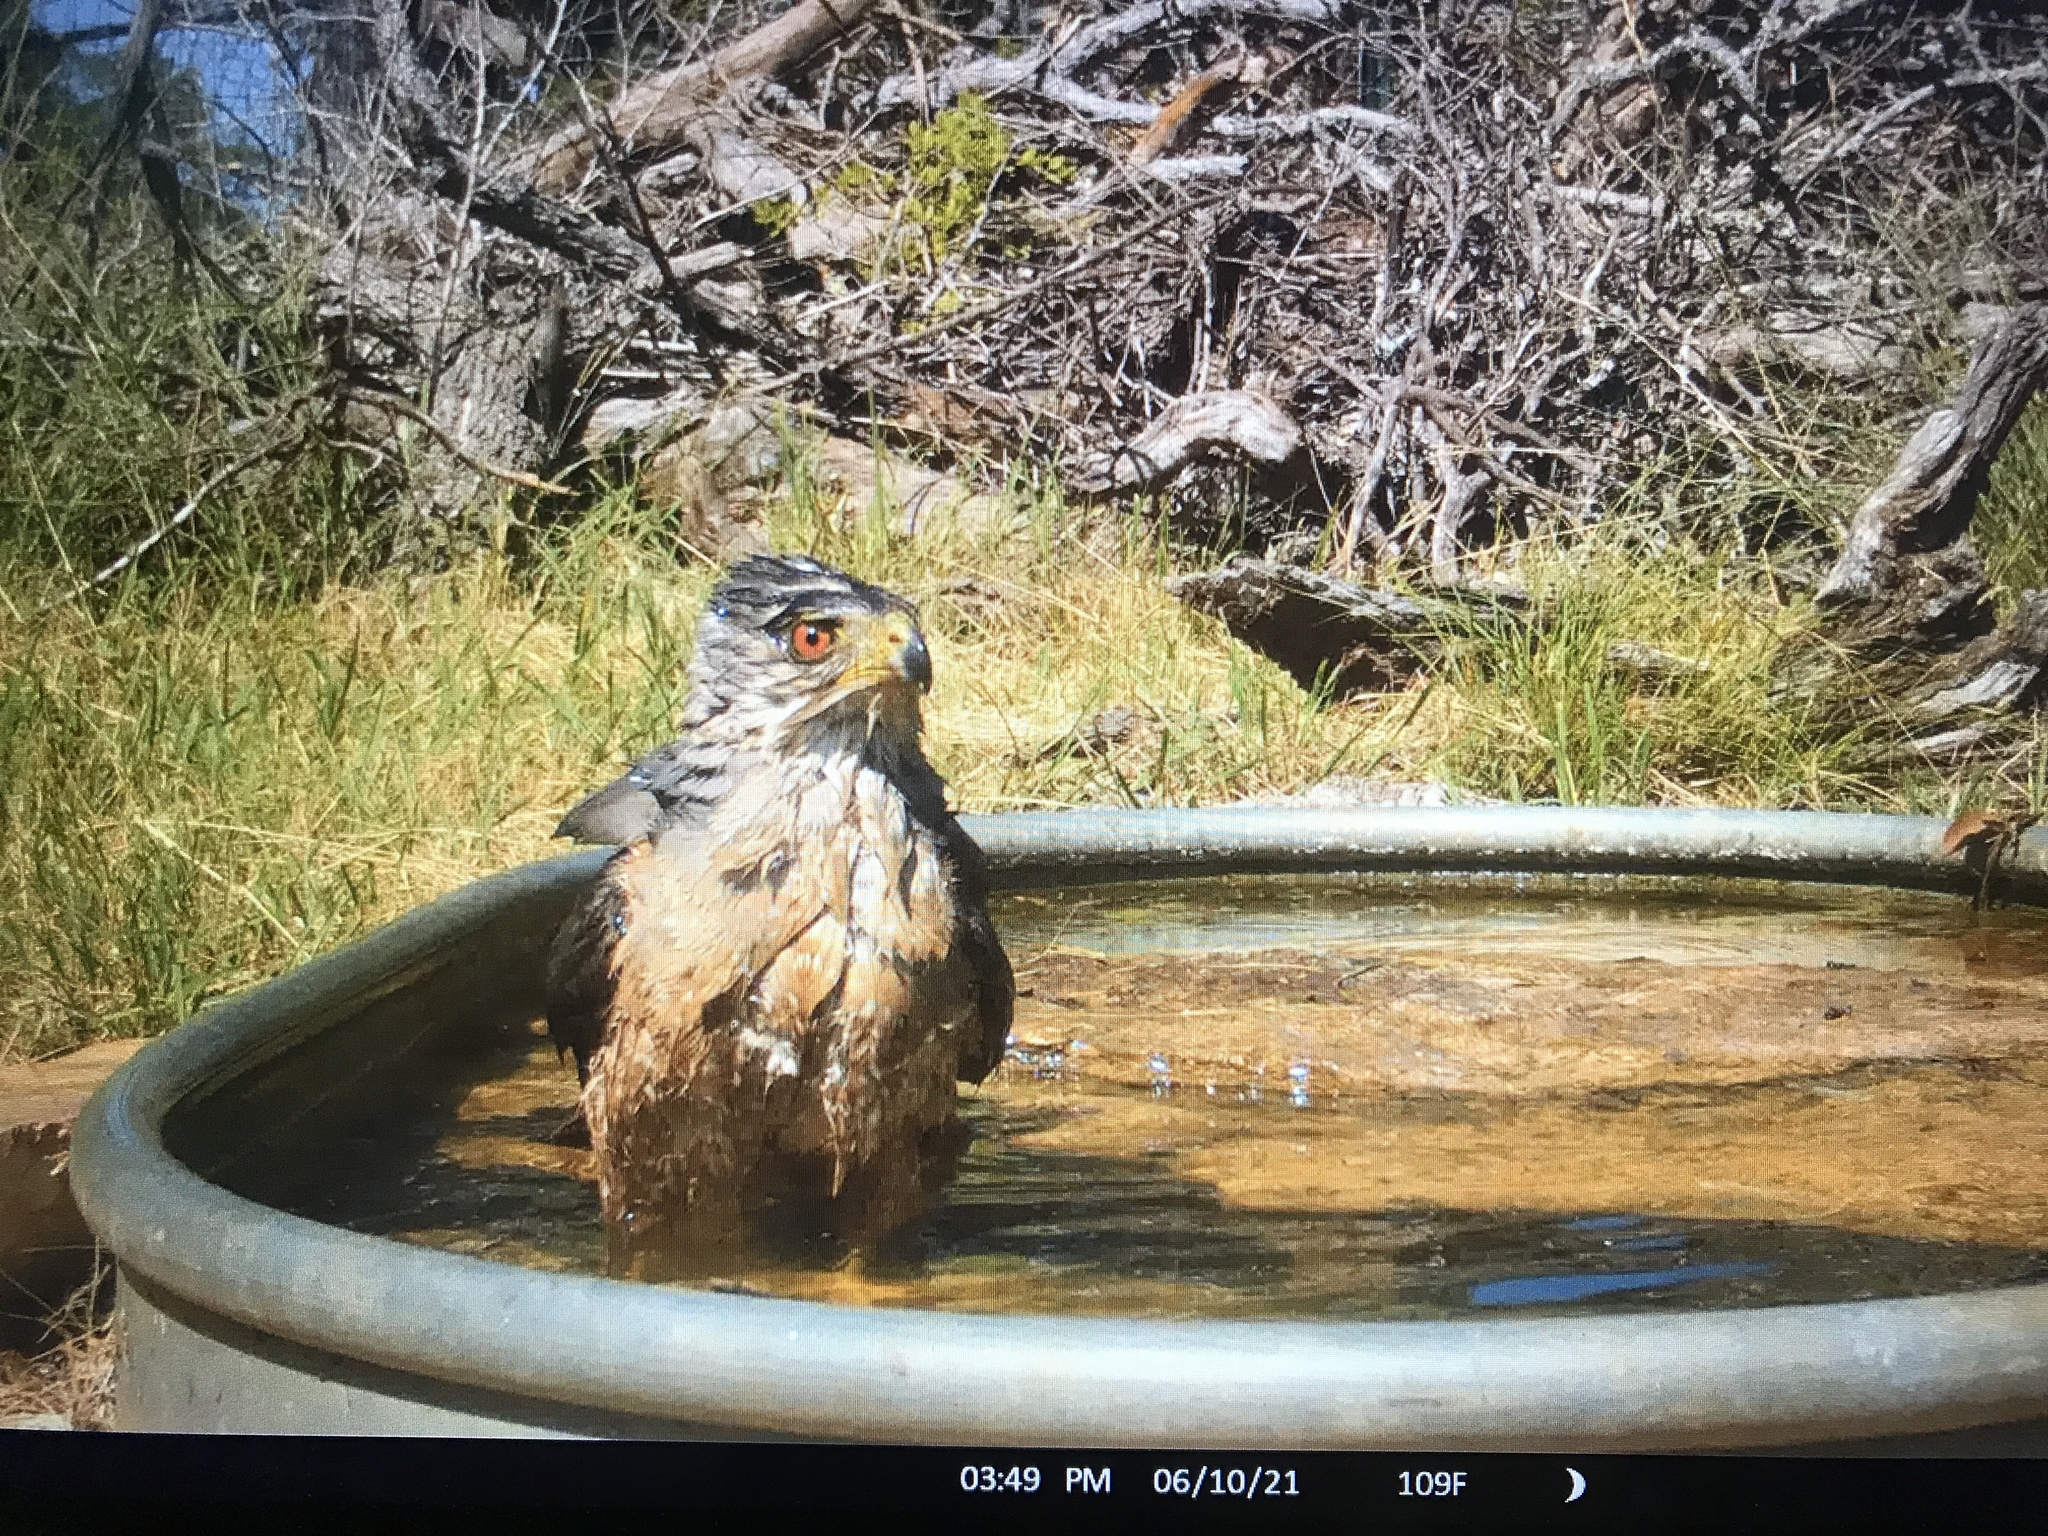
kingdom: Animalia
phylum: Chordata
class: Aves
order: Accipitriformes
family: Accipitridae
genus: Accipiter
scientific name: Accipiter cooperii
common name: Cooper's hawk
